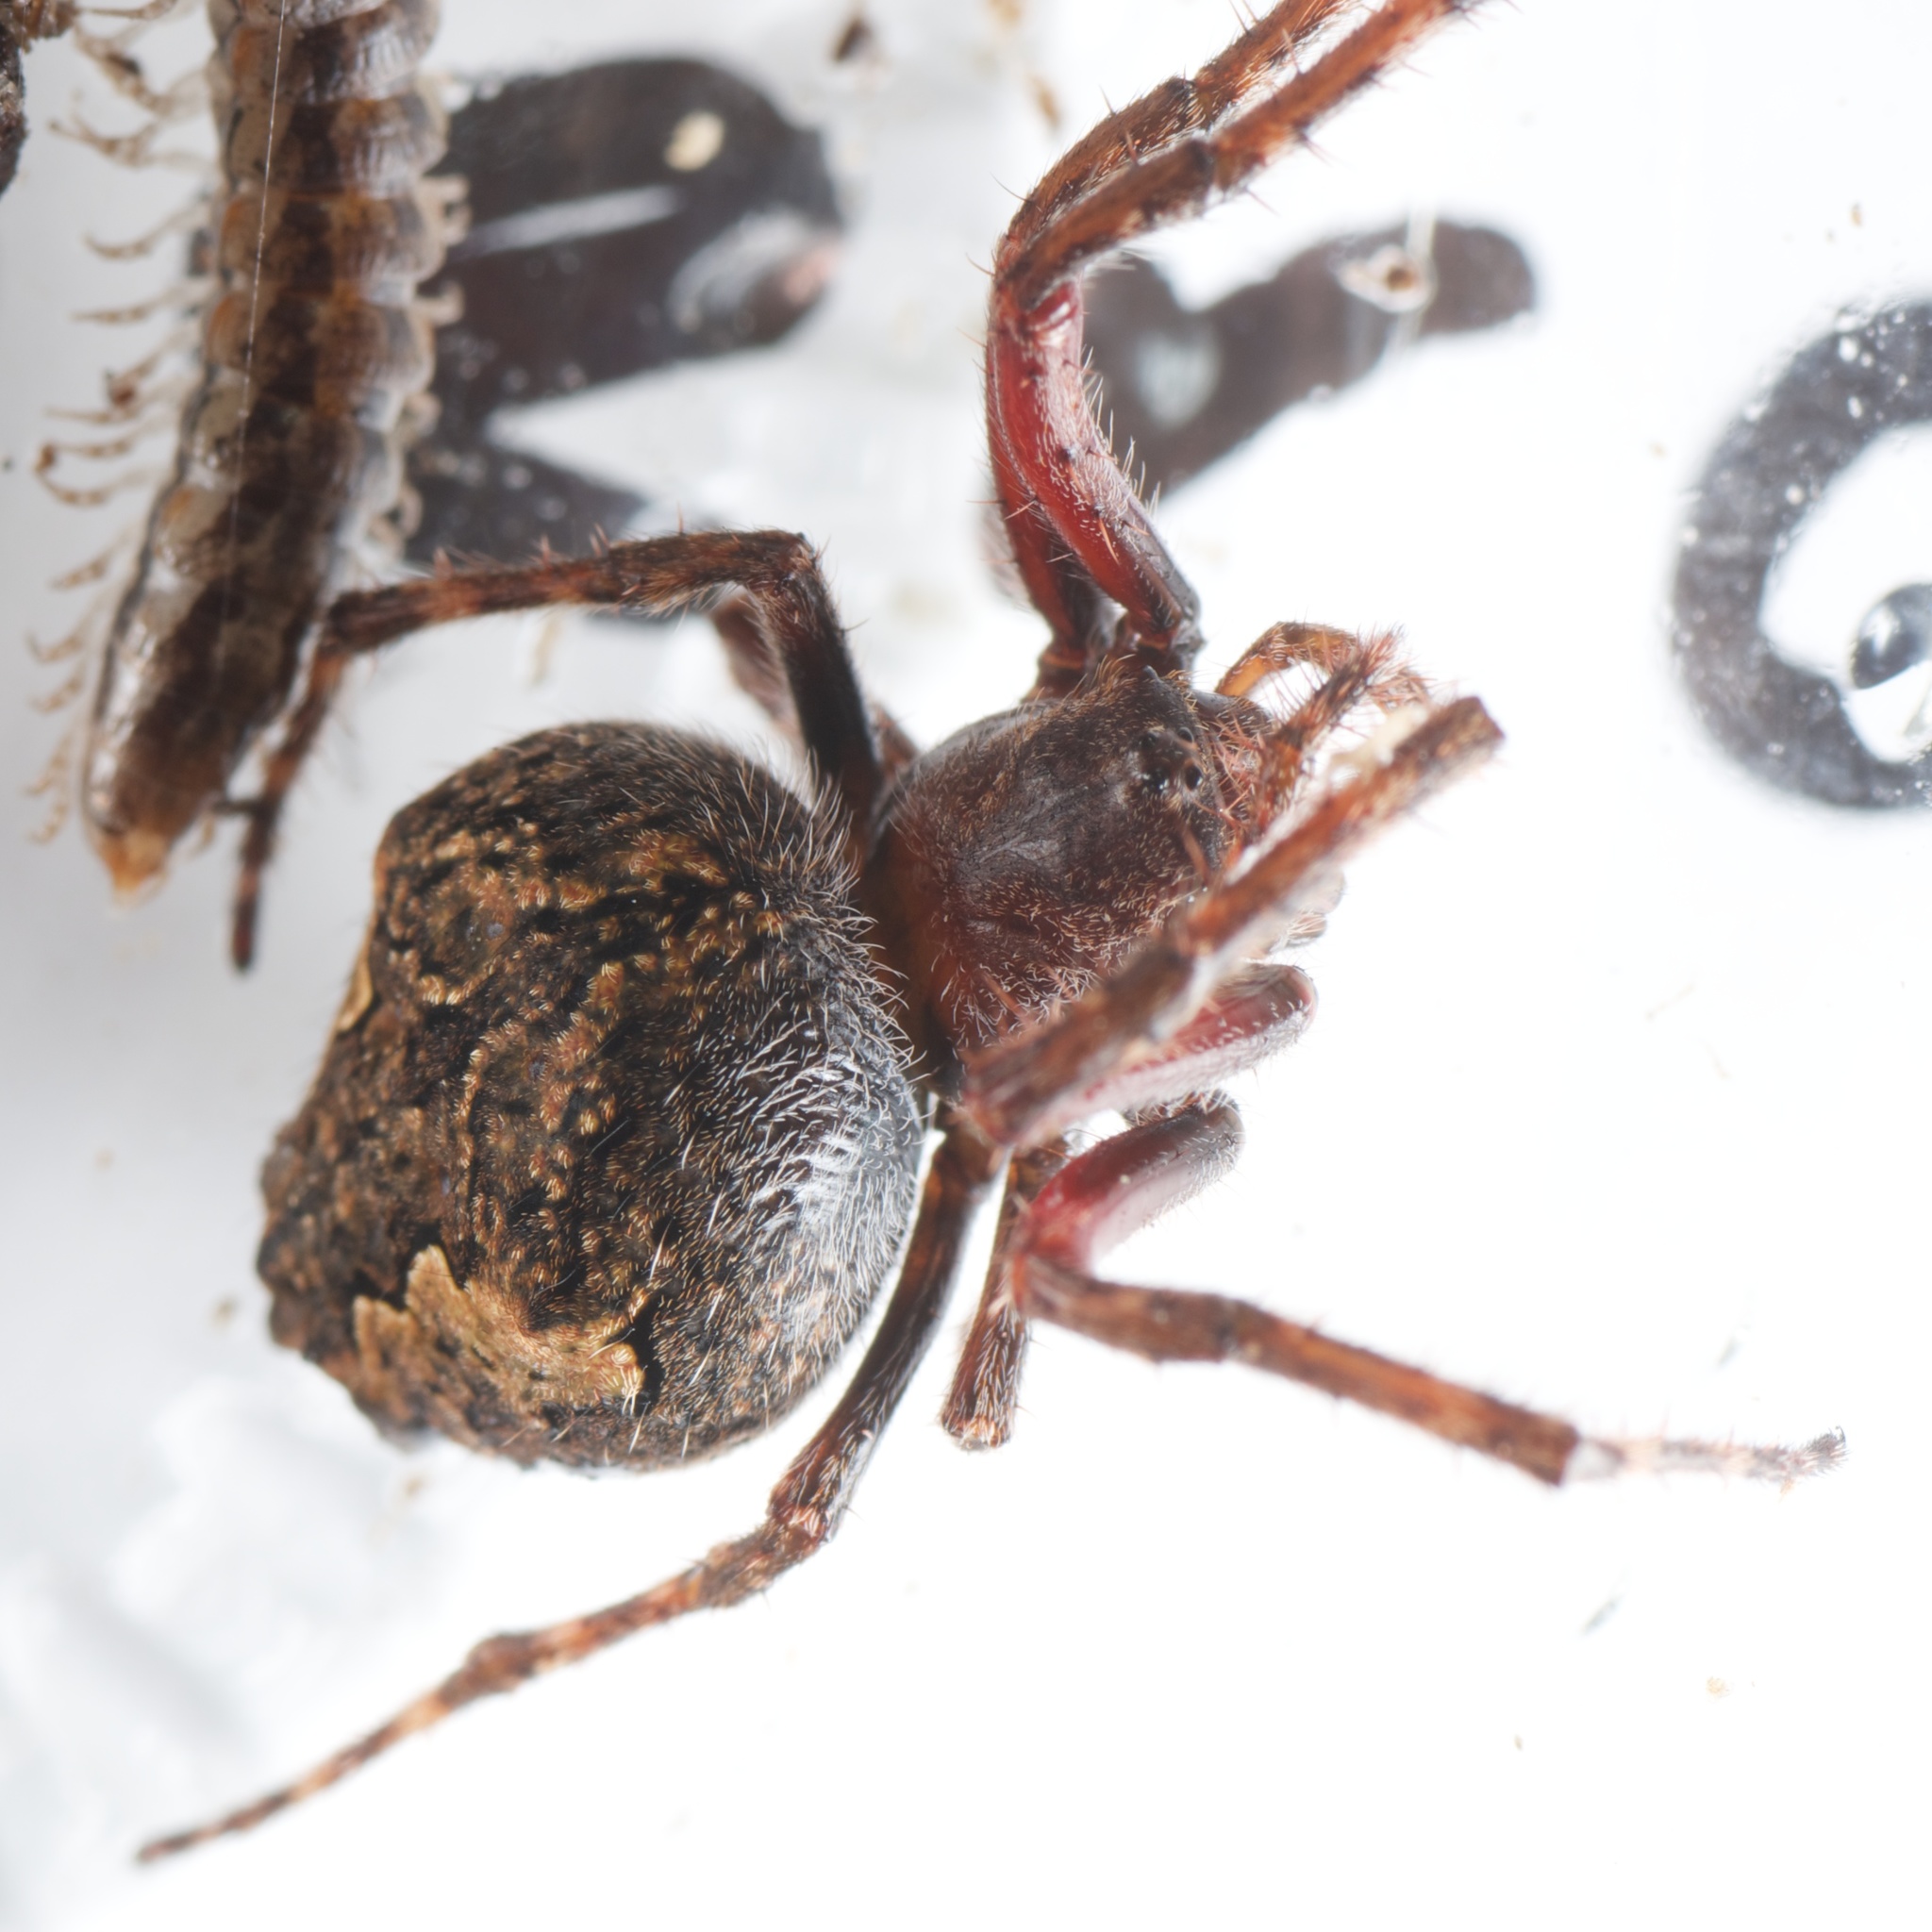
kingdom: Animalia
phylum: Arthropoda
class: Arachnida
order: Araneae
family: Araneidae
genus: Eriophora
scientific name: Eriophora pustulosa
